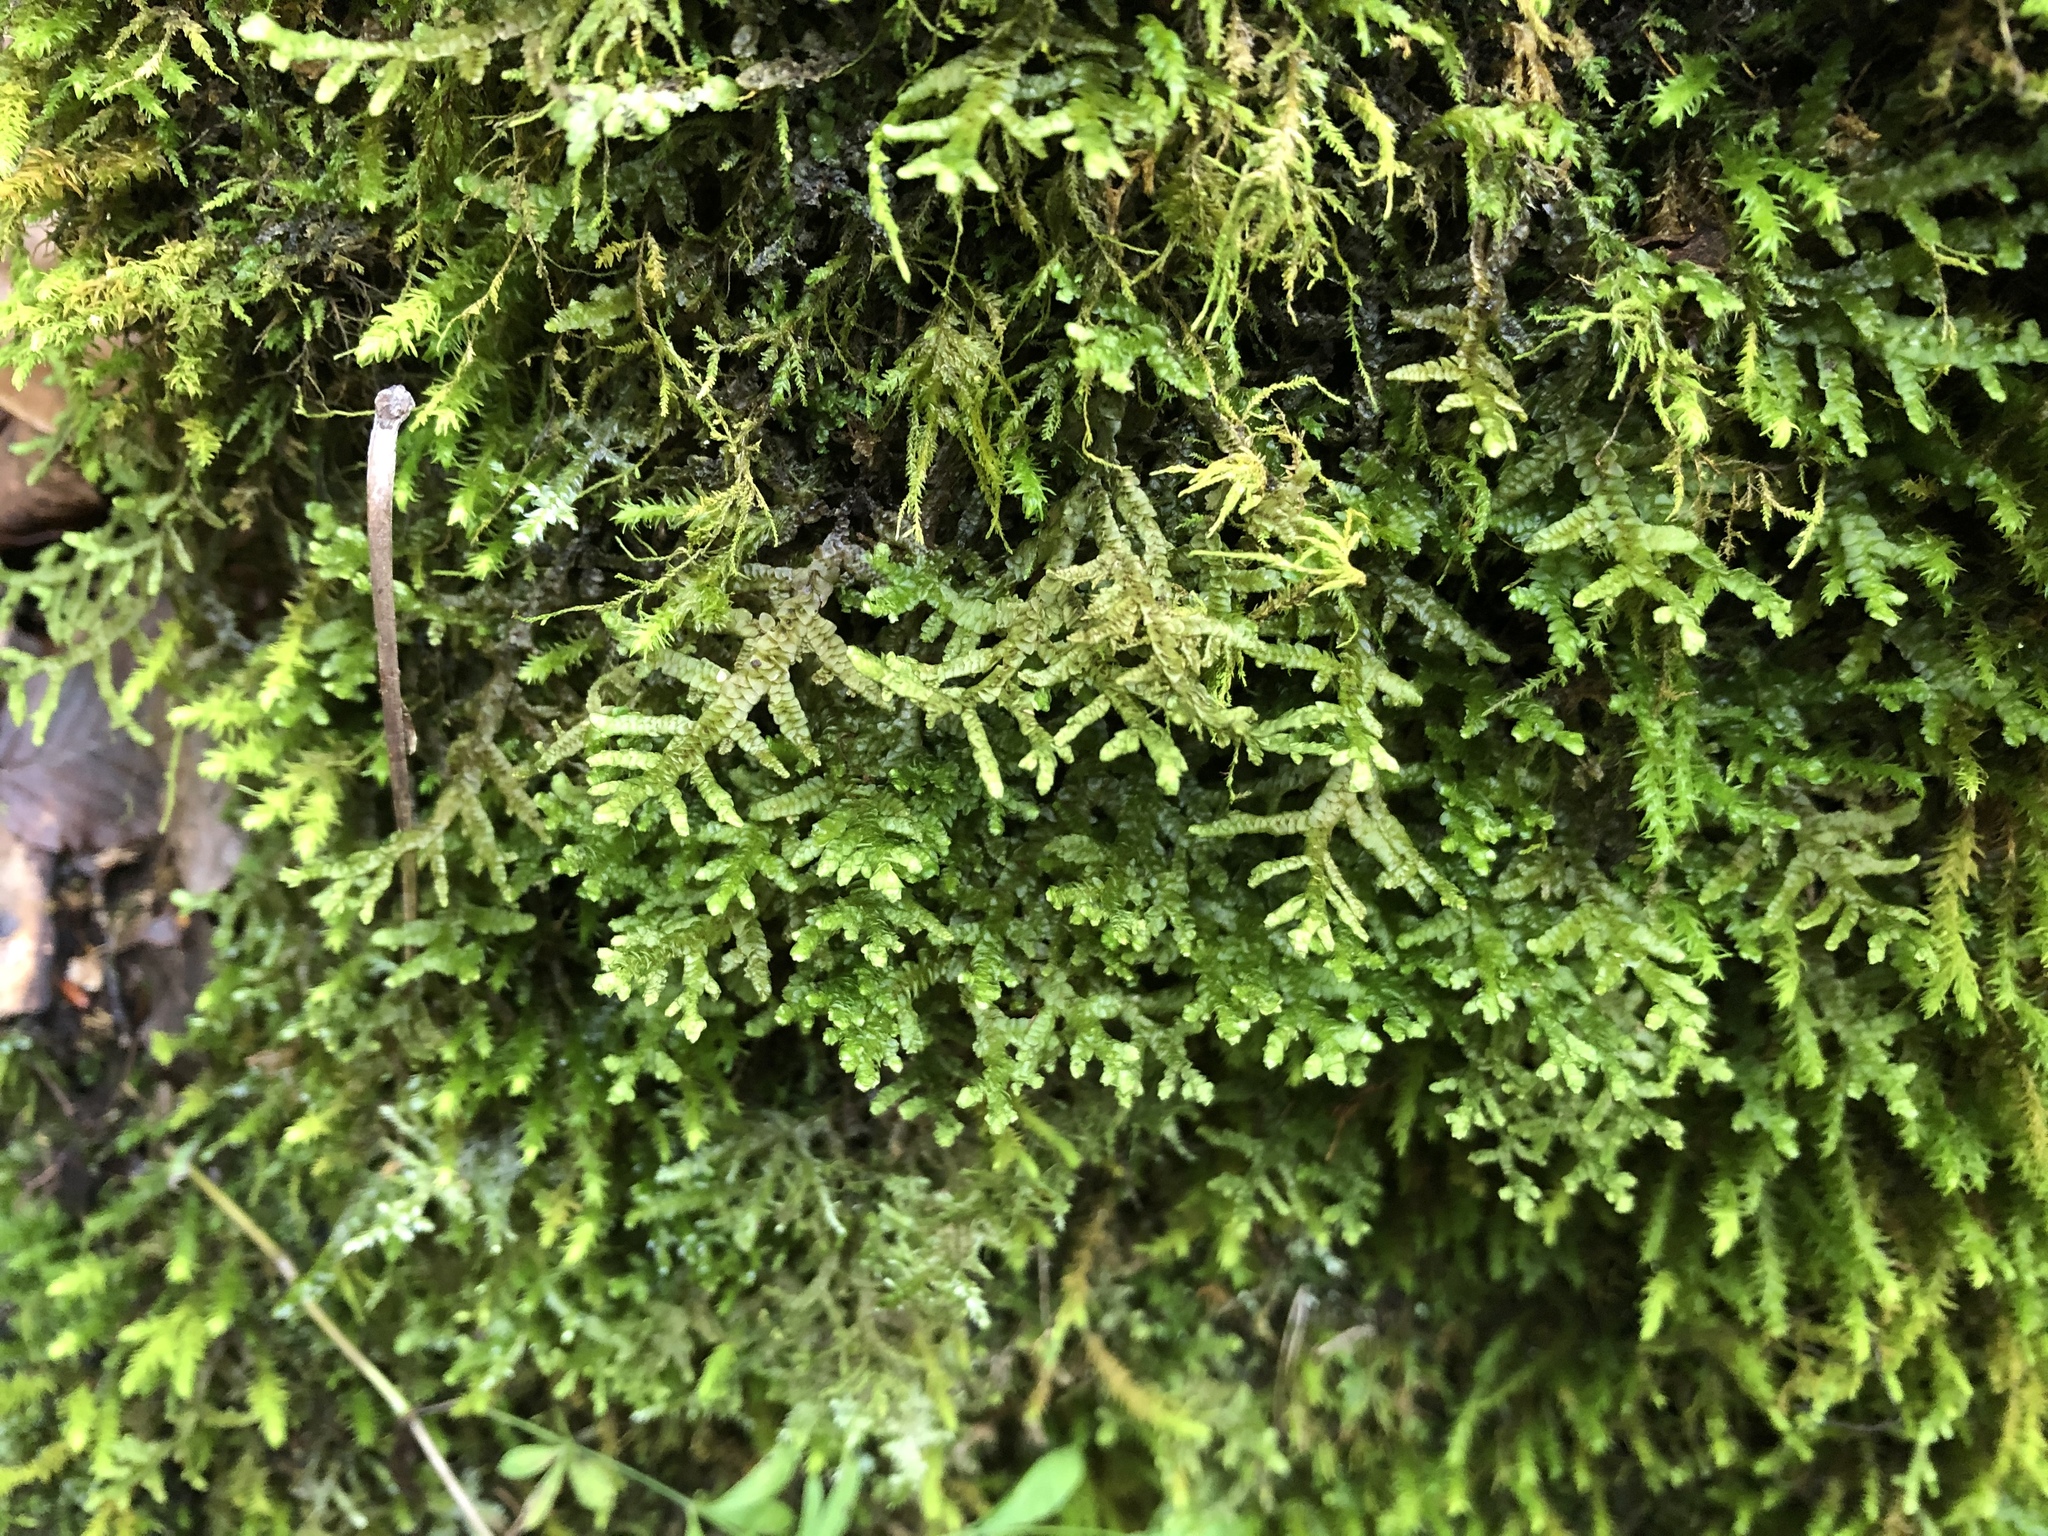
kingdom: Plantae
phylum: Marchantiophyta
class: Jungermanniopsida
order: Porellales
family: Porellaceae
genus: Porella
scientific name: Porella platyphylla
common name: Wall scalewort
